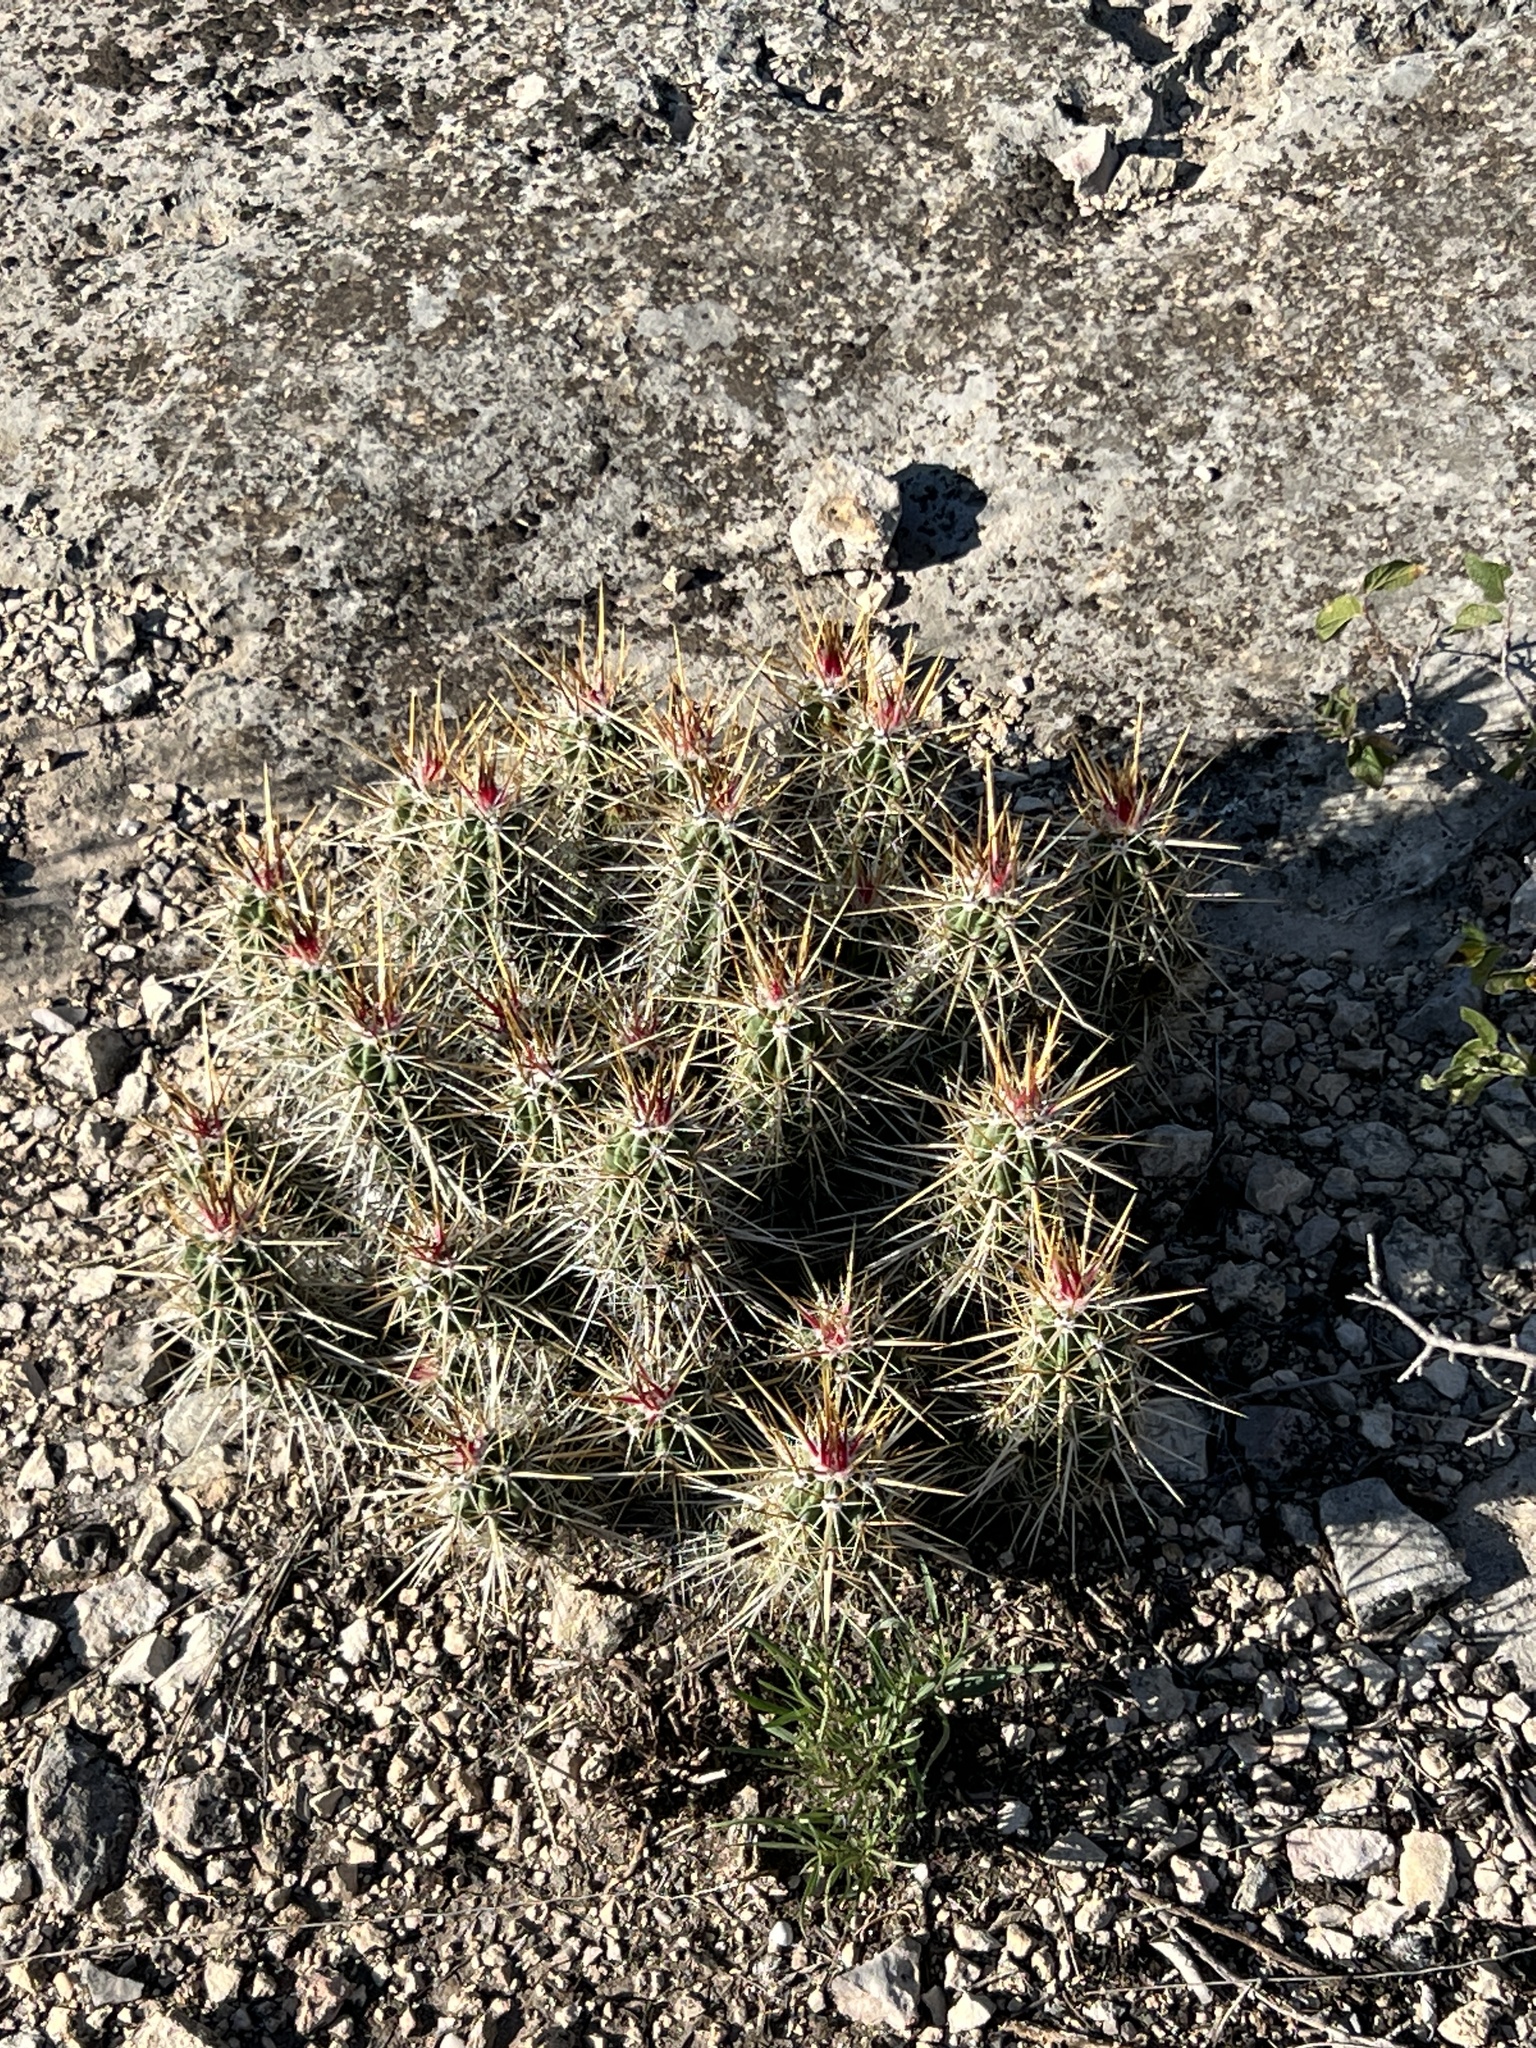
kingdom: Plantae
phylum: Tracheophyta
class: Magnoliopsida
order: Caryophyllales
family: Cactaceae
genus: Echinocereus
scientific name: Echinocereus enneacanthus
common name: Pitaya
